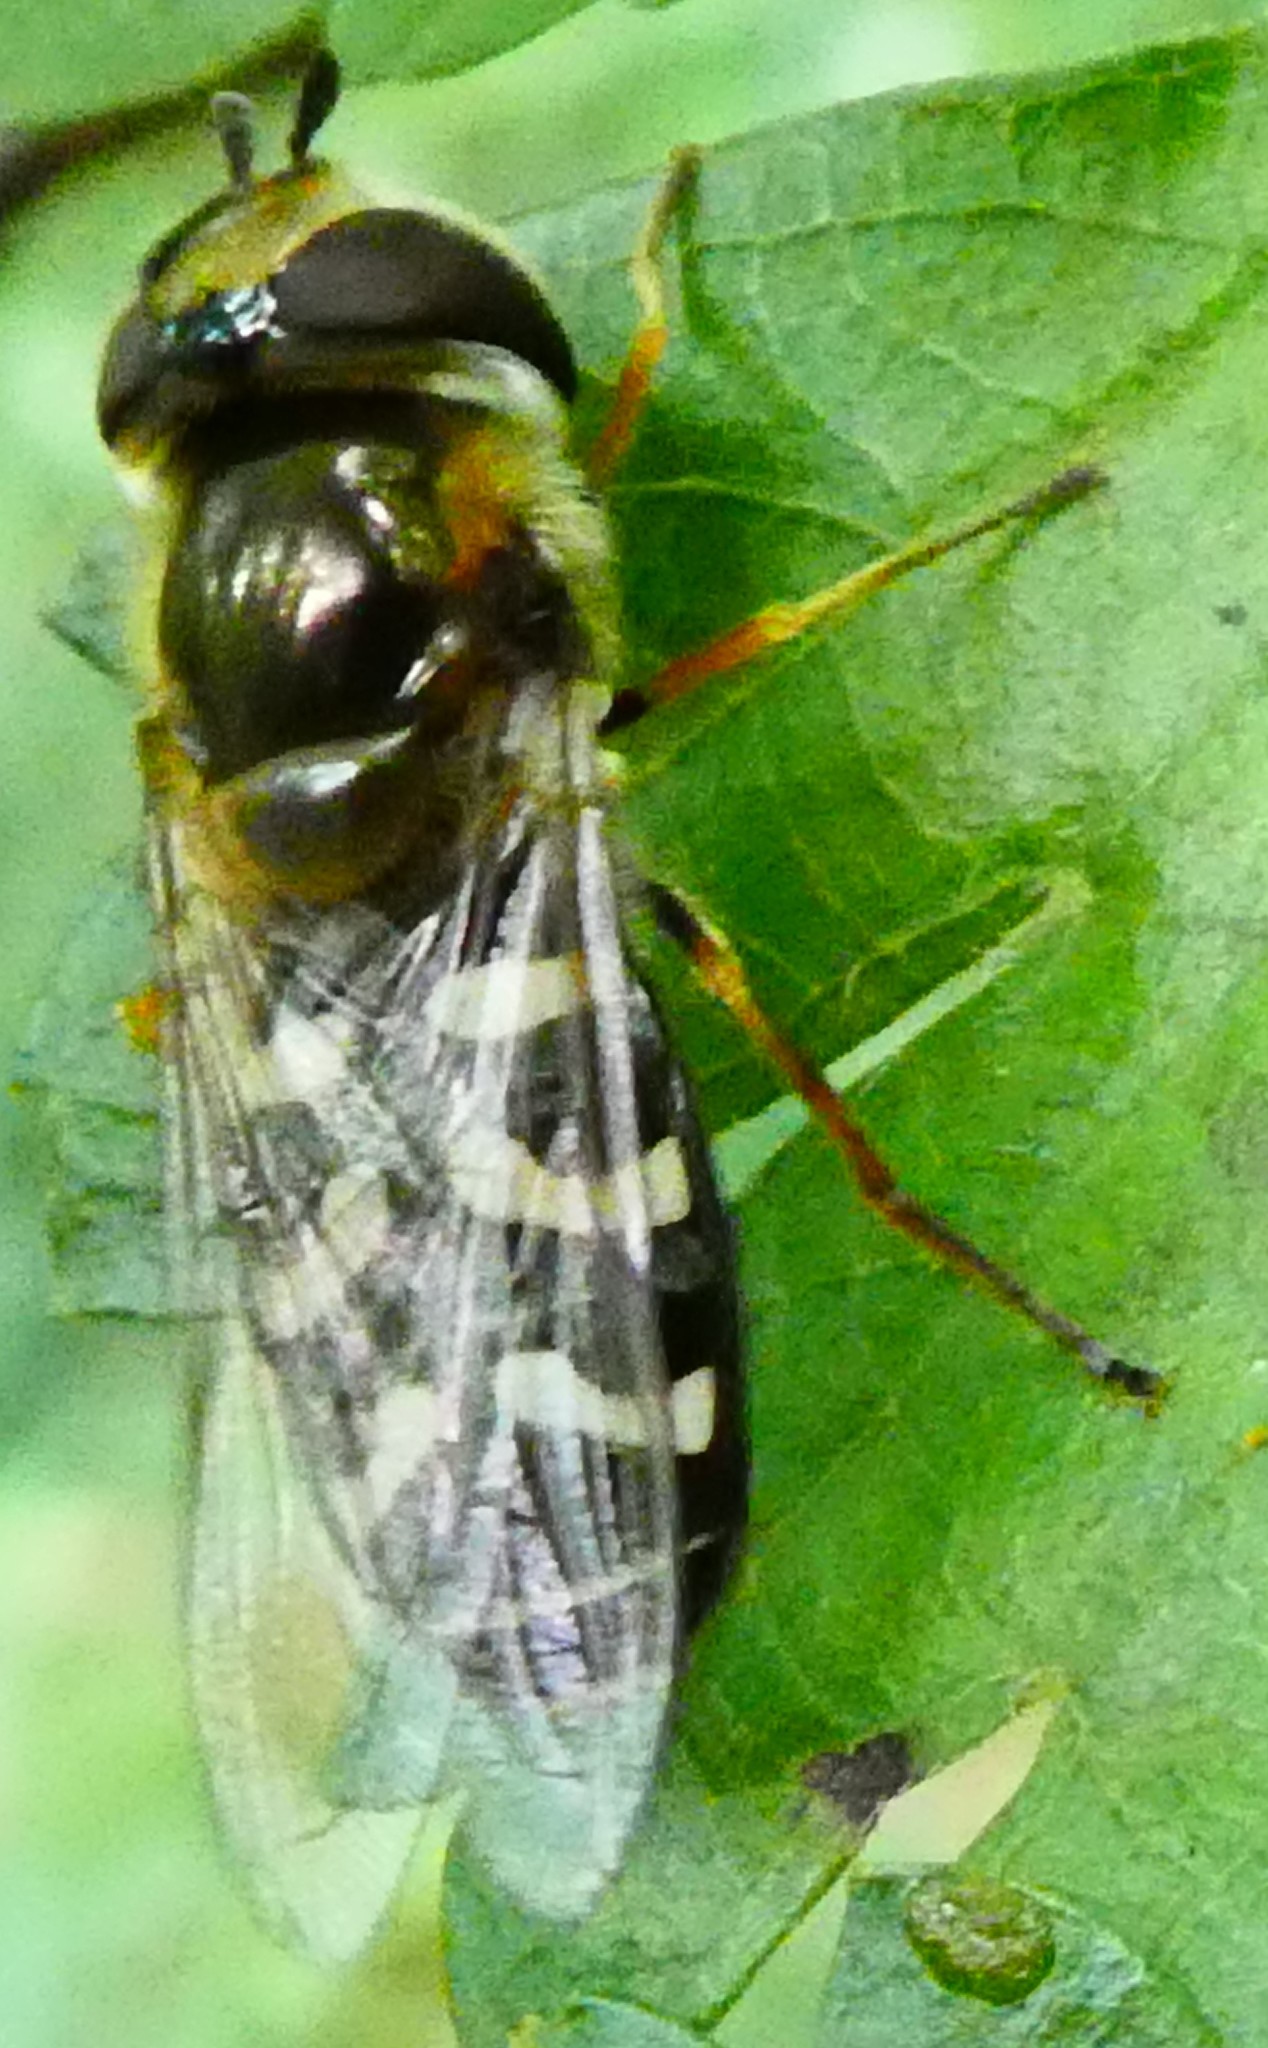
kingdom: Animalia
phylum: Arthropoda
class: Insecta
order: Diptera
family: Syrphidae
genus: Scaeva
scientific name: Scaeva pyrastri
